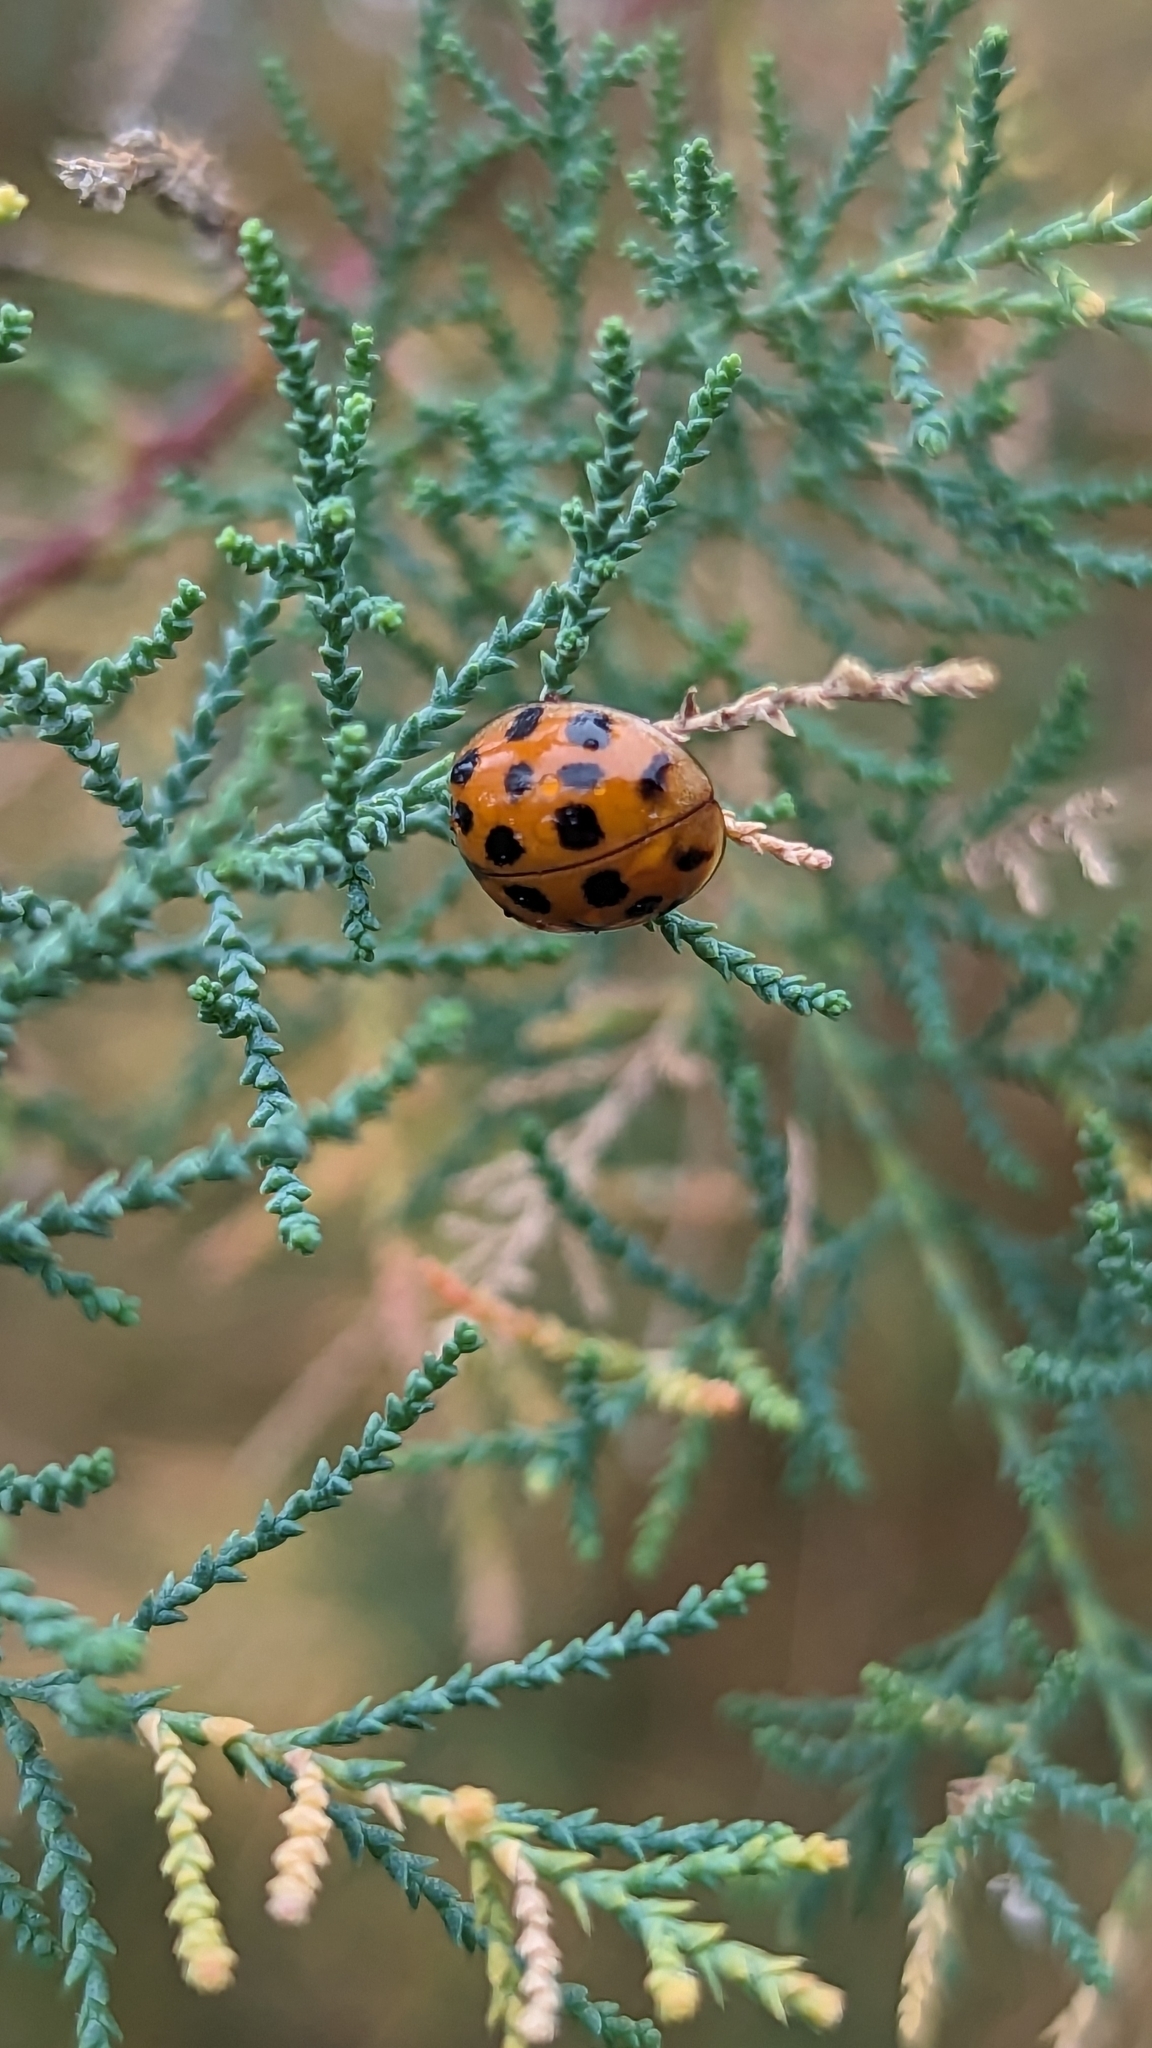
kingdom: Animalia
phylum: Arthropoda
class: Insecta
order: Coleoptera
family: Coccinellidae
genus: Harmonia
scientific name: Harmonia axyridis
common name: Harlequin ladybird
